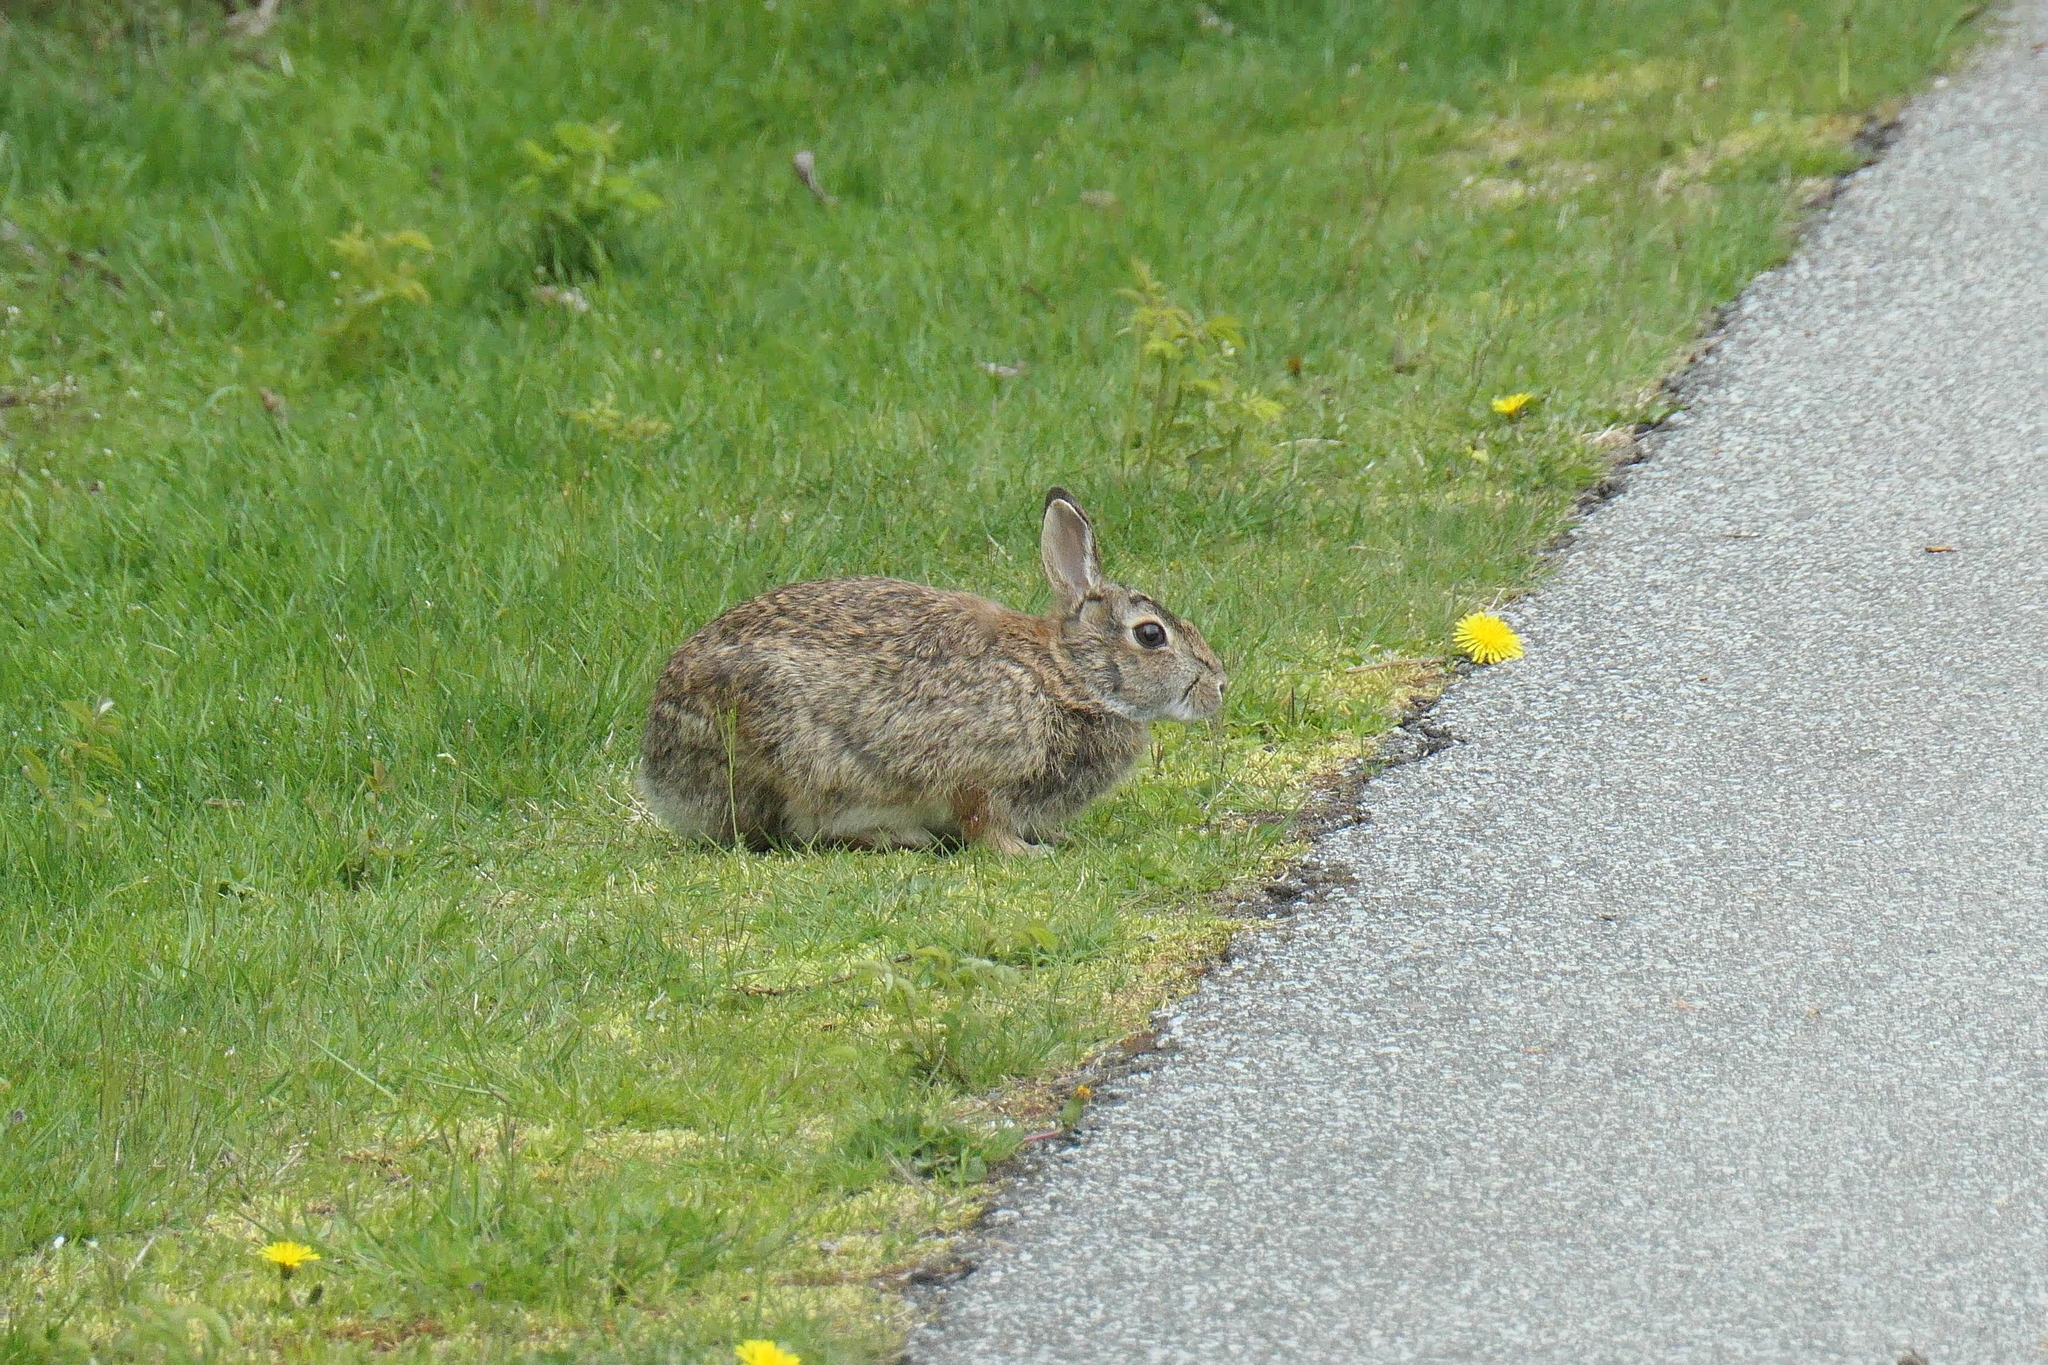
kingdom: Animalia
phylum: Chordata
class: Mammalia
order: Lagomorpha
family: Leporidae
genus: Sylvilagus
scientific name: Sylvilagus floridanus
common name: Eastern cottontail
